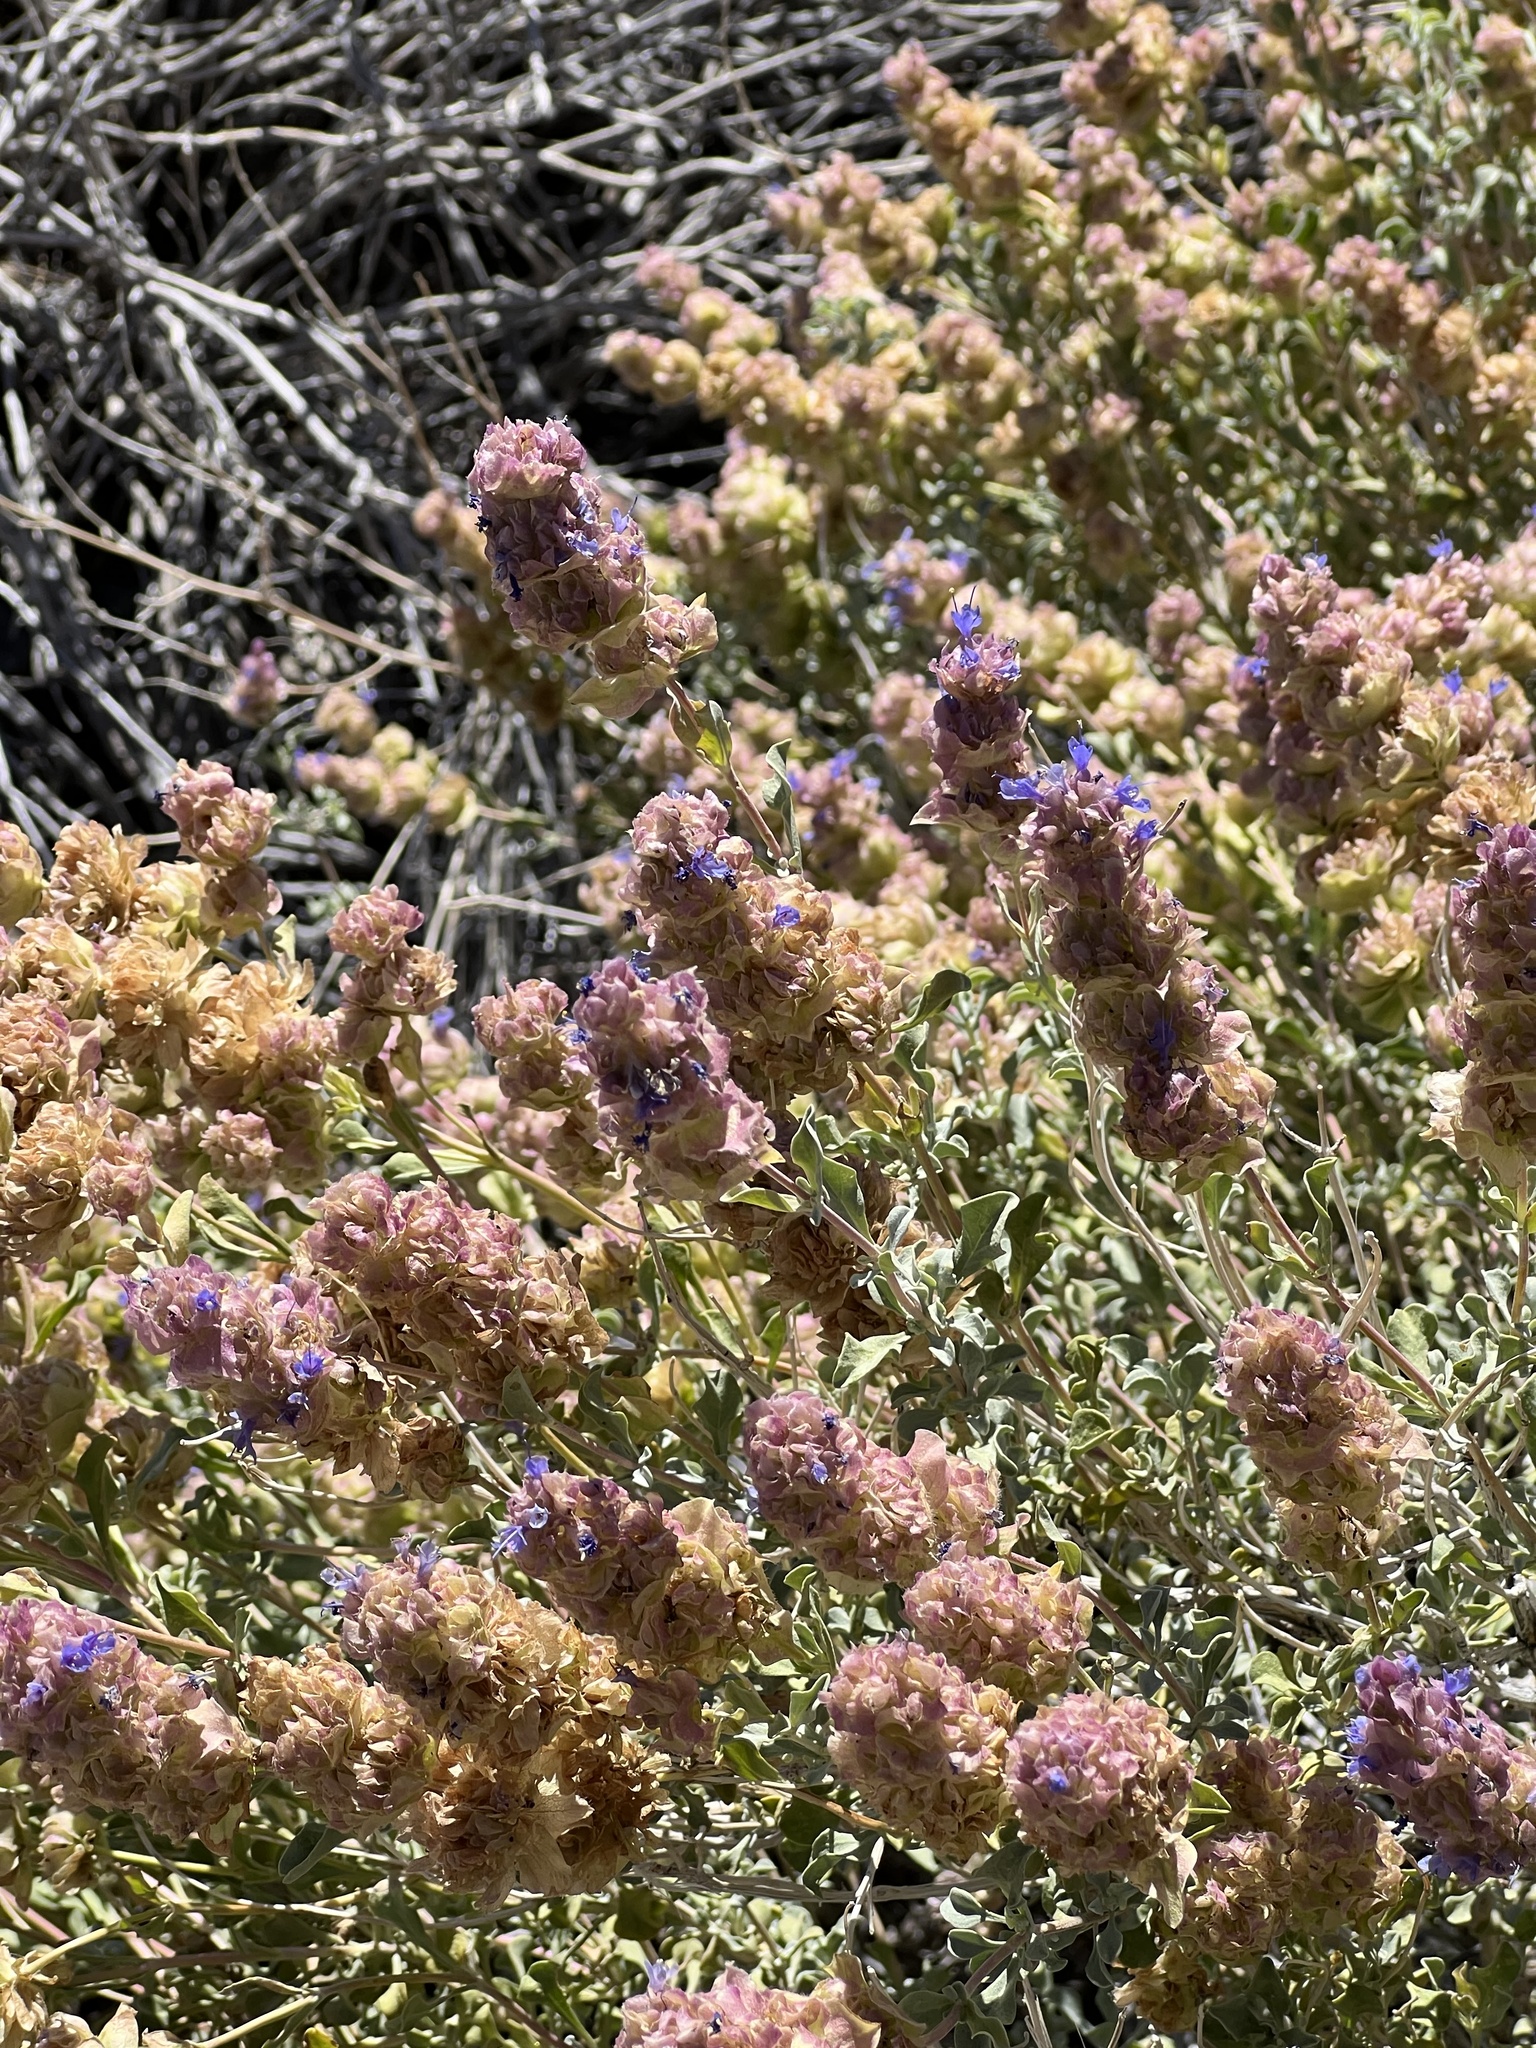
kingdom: Plantae
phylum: Tracheophyta
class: Magnoliopsida
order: Lamiales
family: Lamiaceae
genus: Salvia
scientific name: Salvia dorrii
